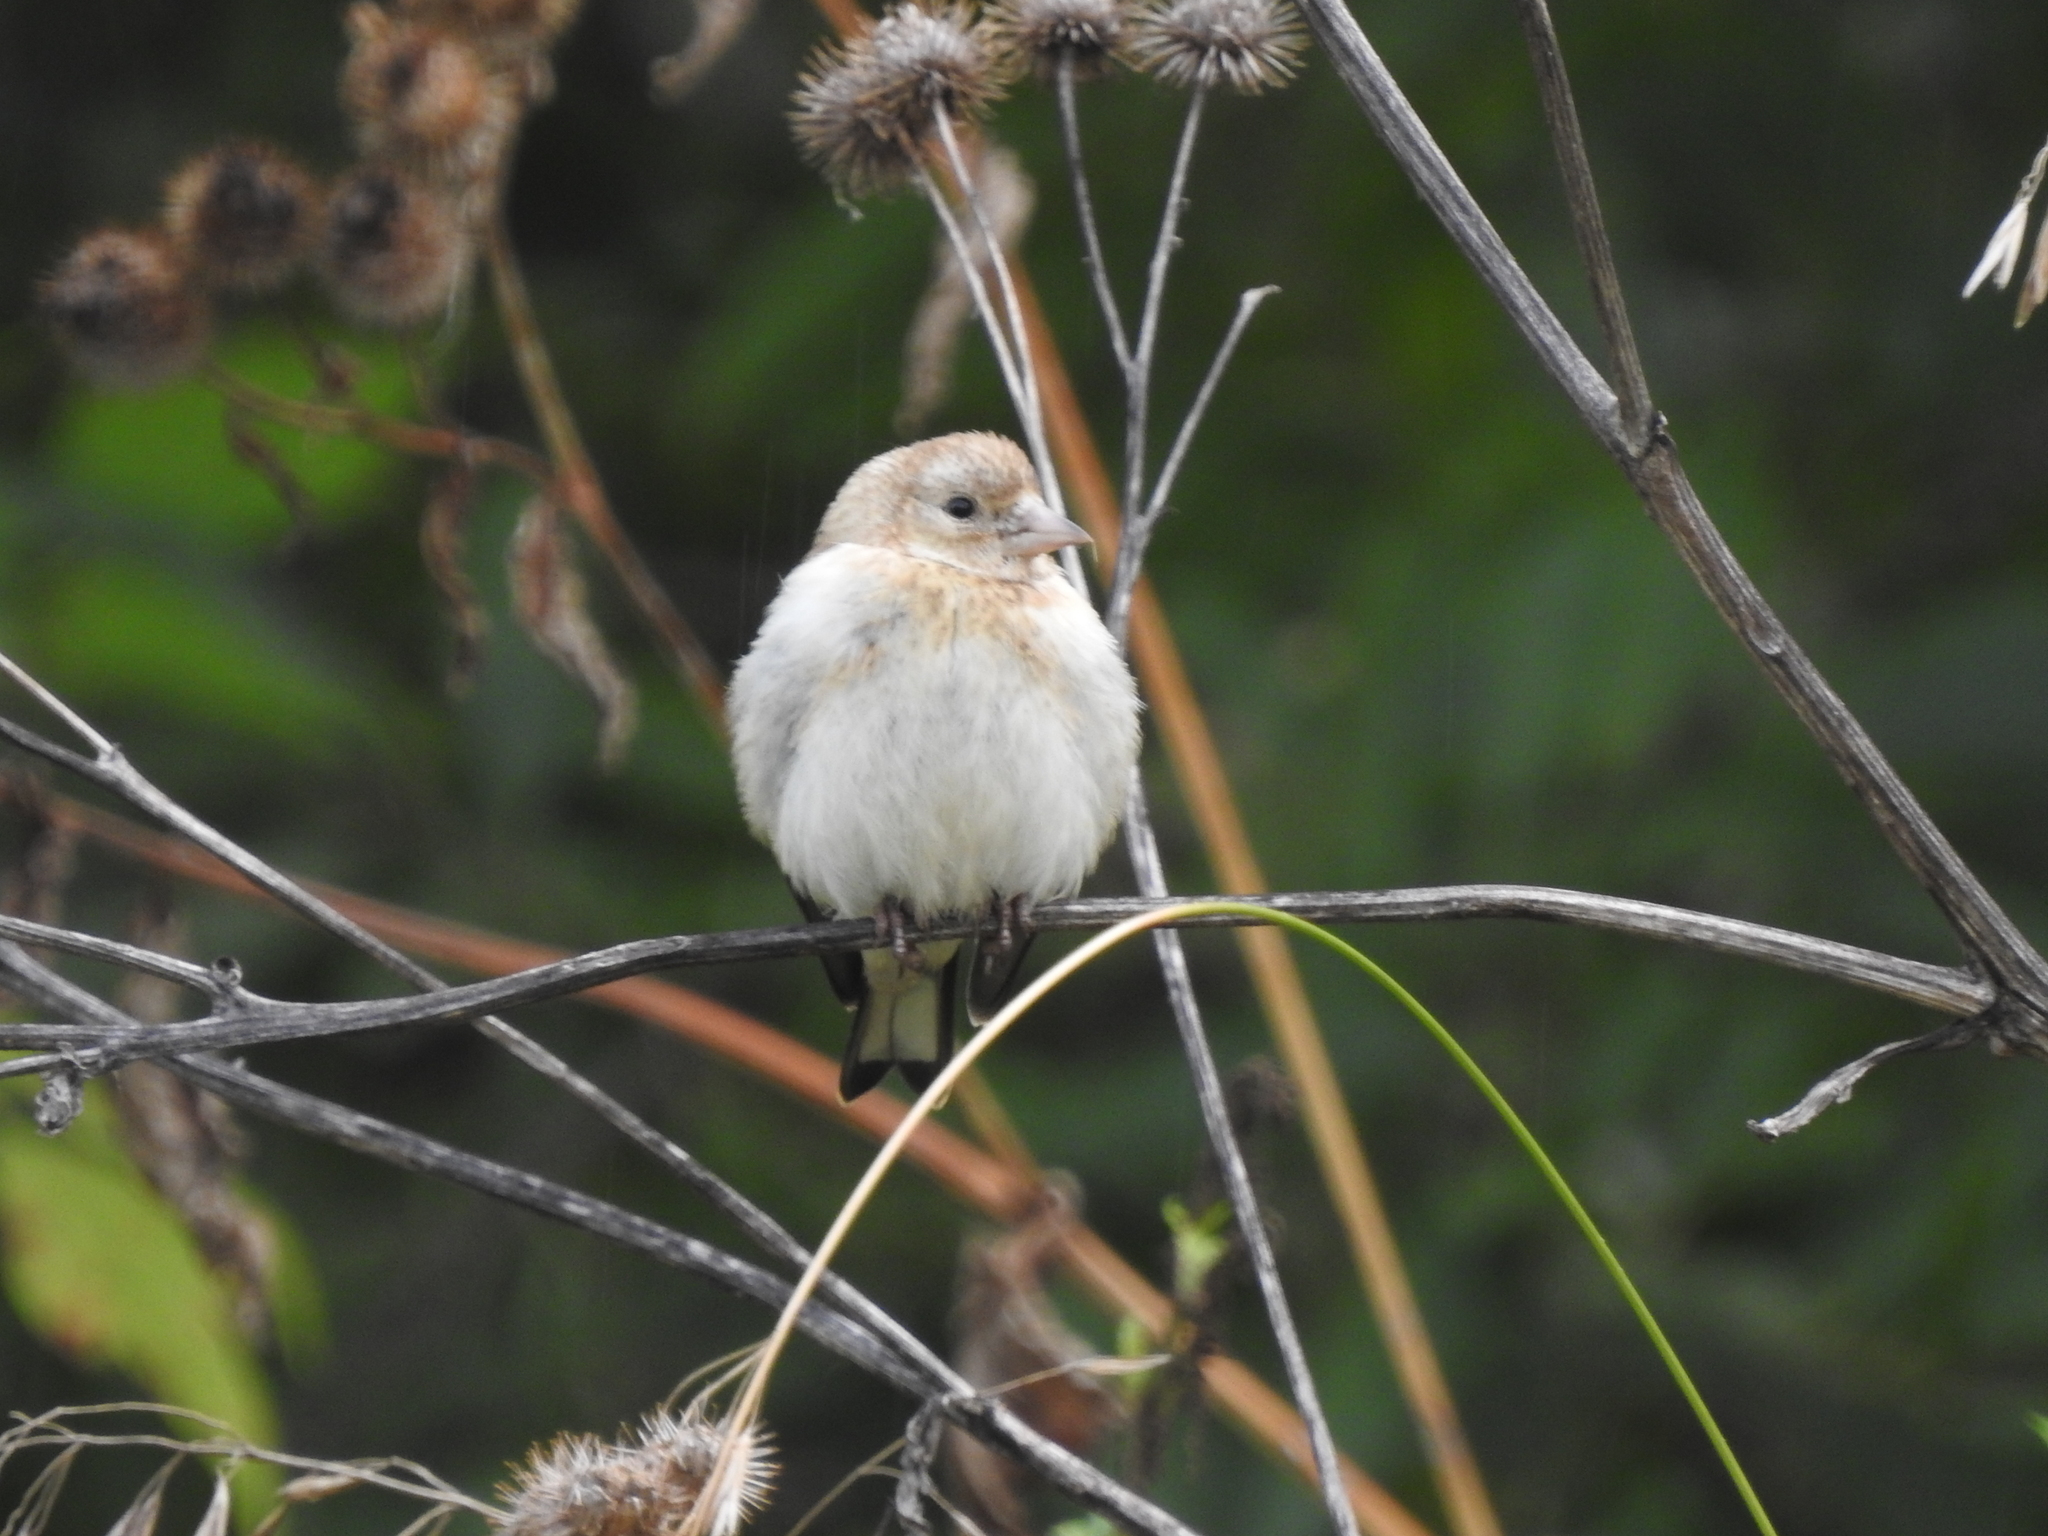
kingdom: Animalia
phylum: Chordata
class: Aves
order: Passeriformes
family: Fringillidae
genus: Carduelis
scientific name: Carduelis carduelis
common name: European goldfinch
